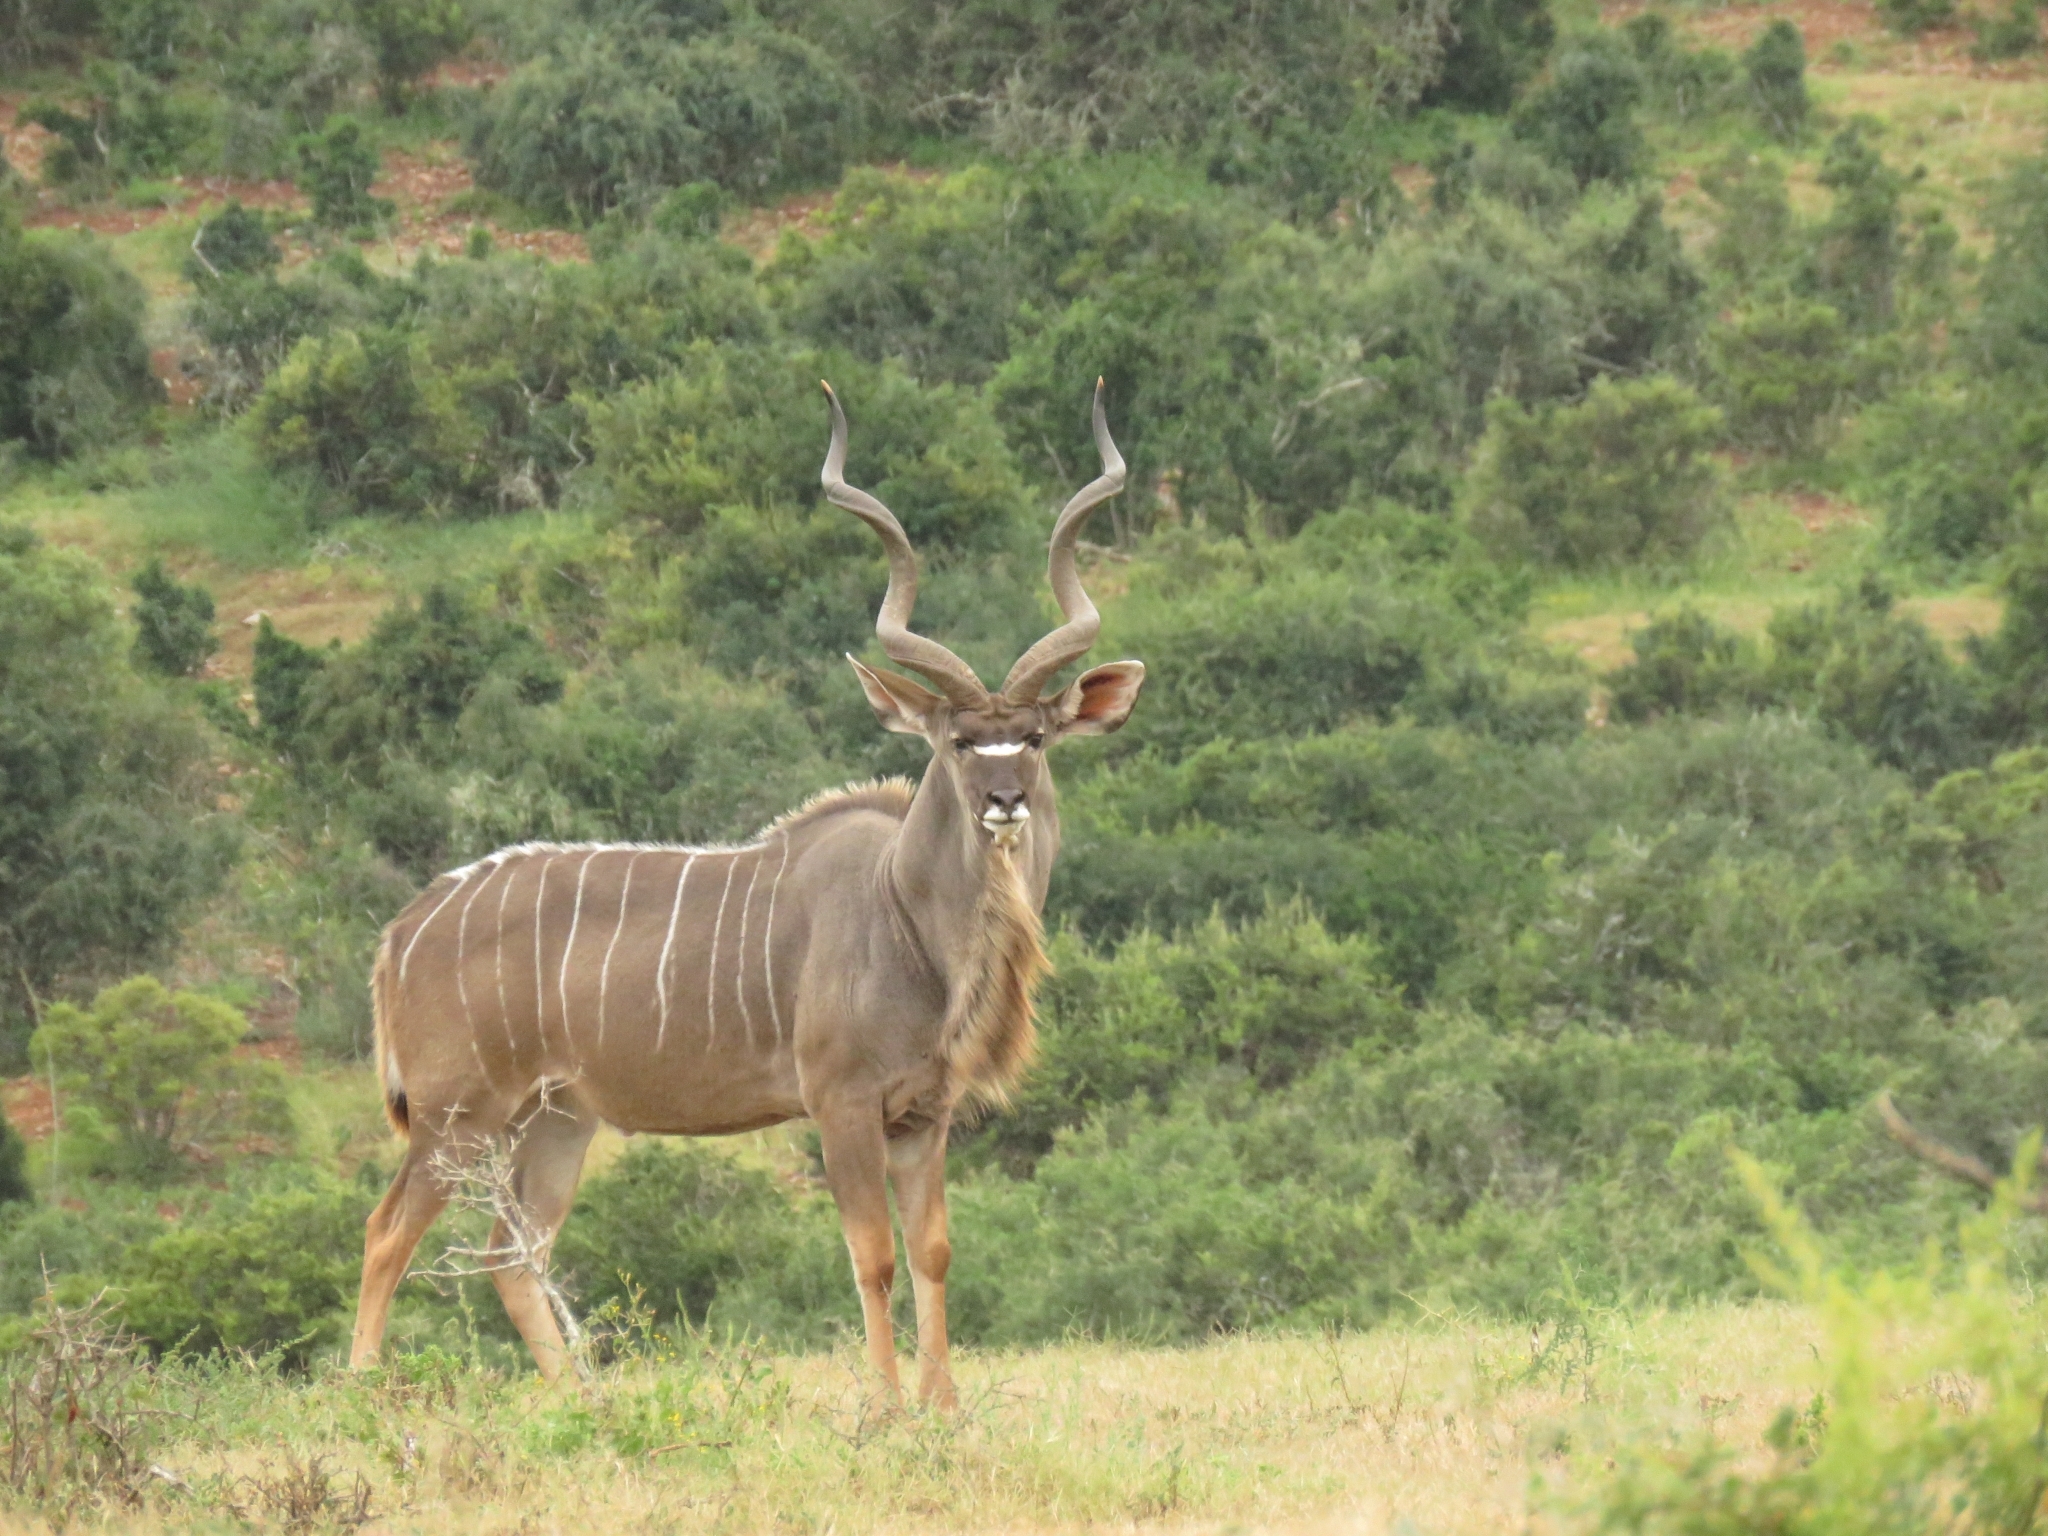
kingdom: Animalia
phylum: Chordata
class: Mammalia
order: Artiodactyla
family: Bovidae
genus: Tragelaphus
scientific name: Tragelaphus strepsiceros
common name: Greater kudu
